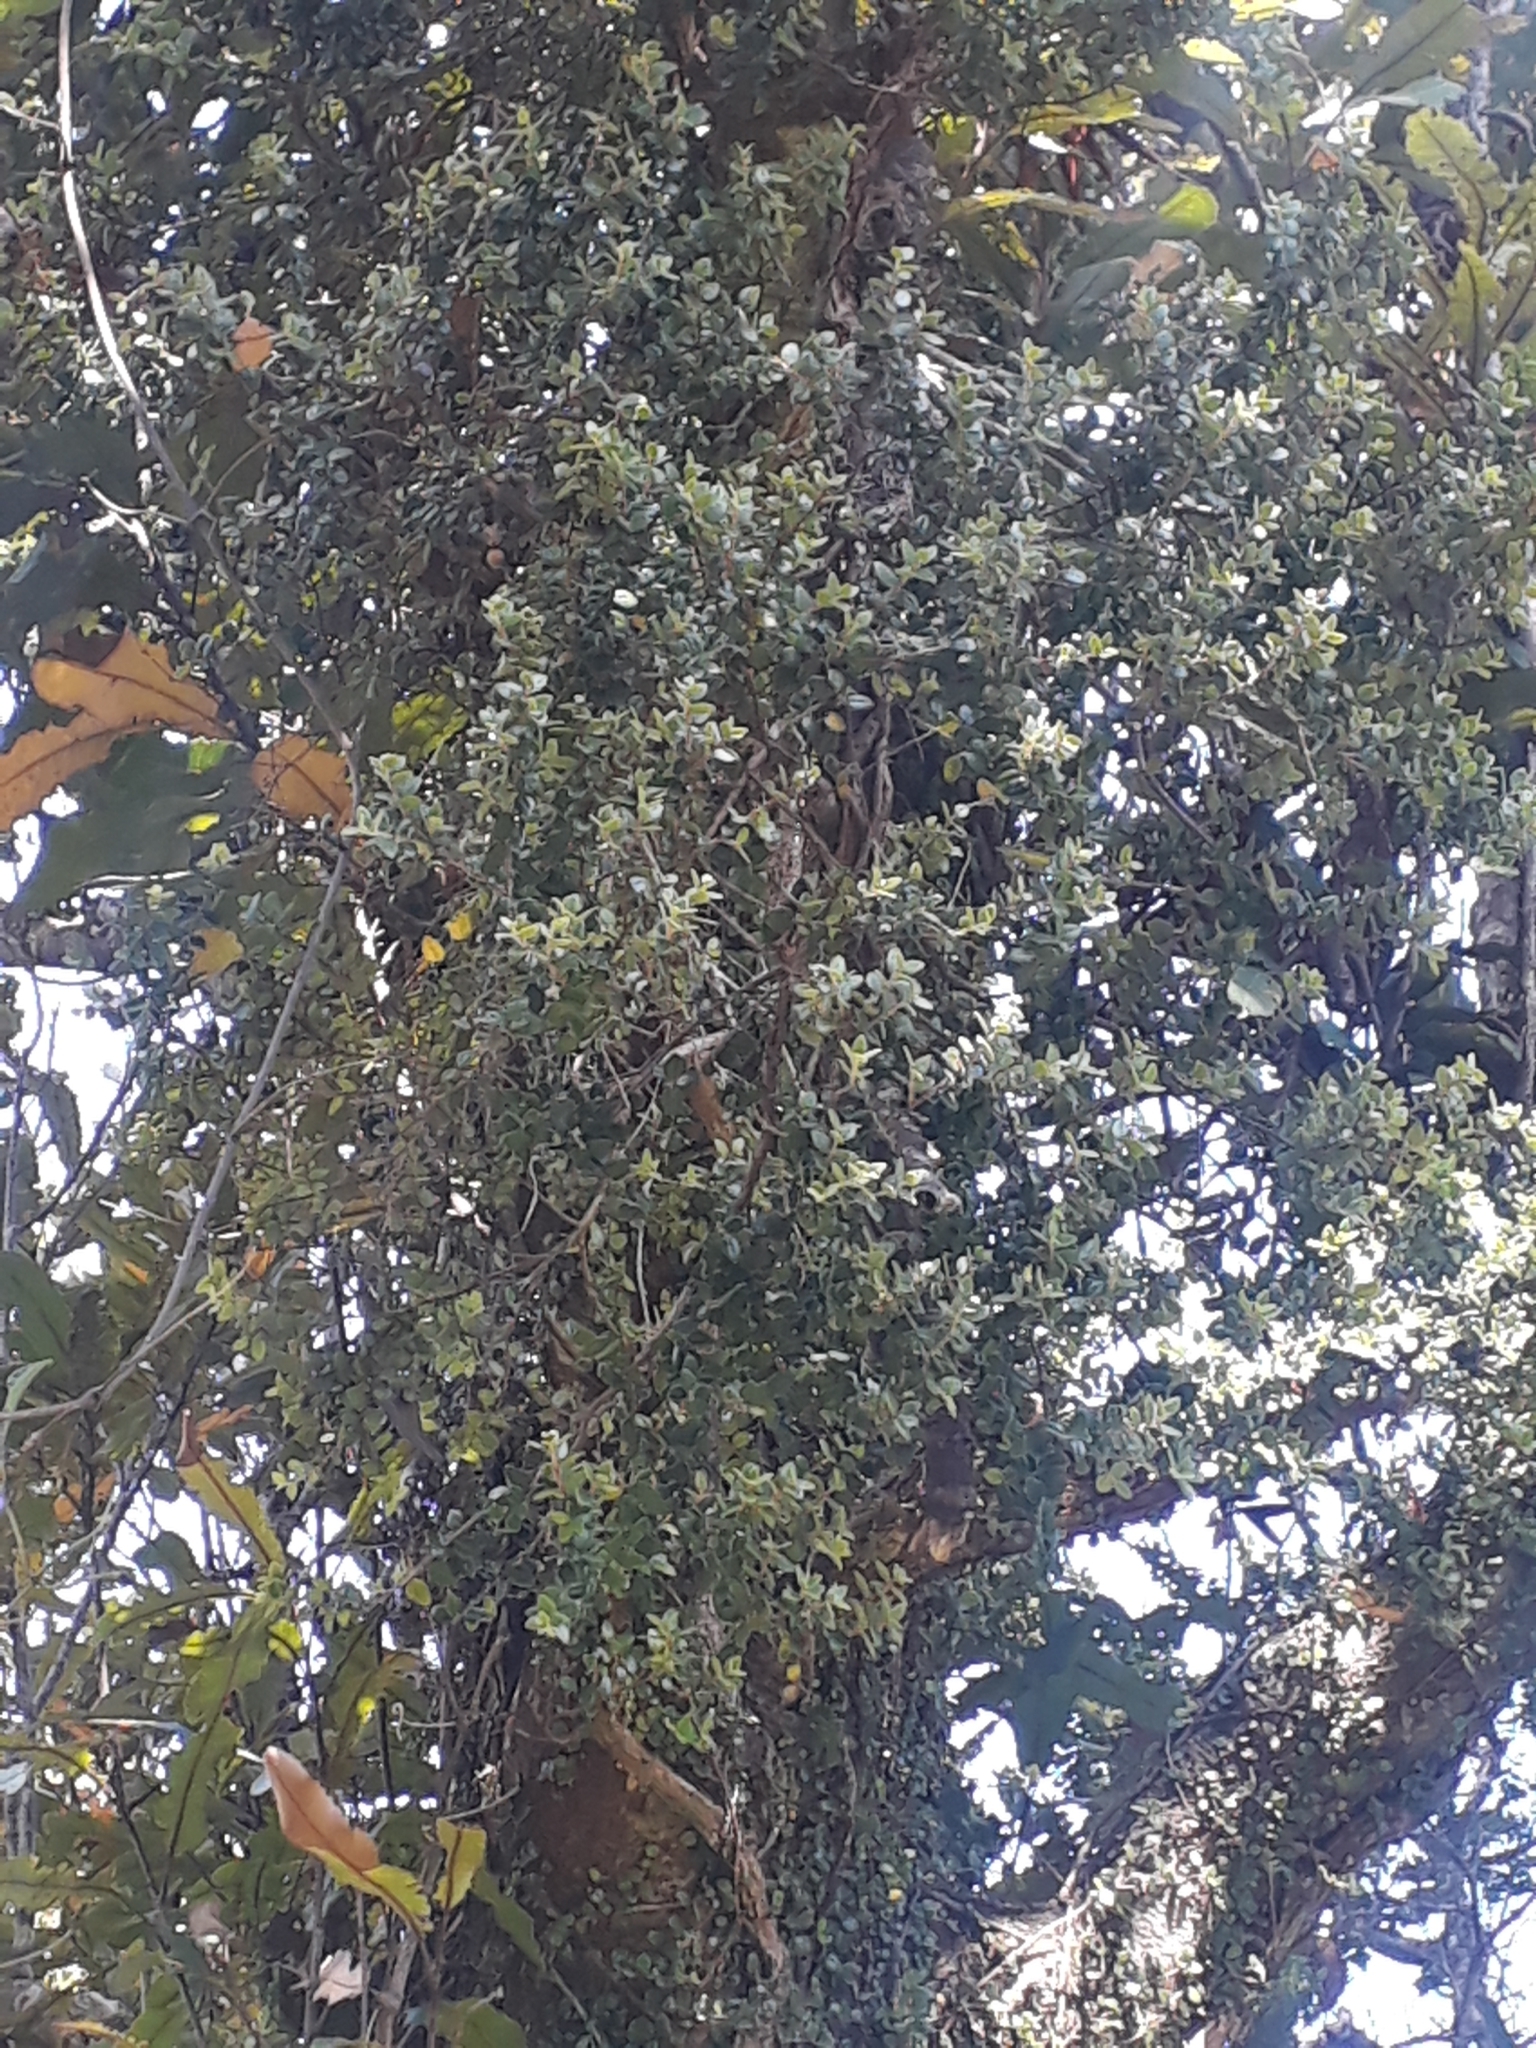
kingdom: Plantae
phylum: Tracheophyta
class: Magnoliopsida
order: Myrtales
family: Myrtaceae
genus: Metrosideros
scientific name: Metrosideros perforata
